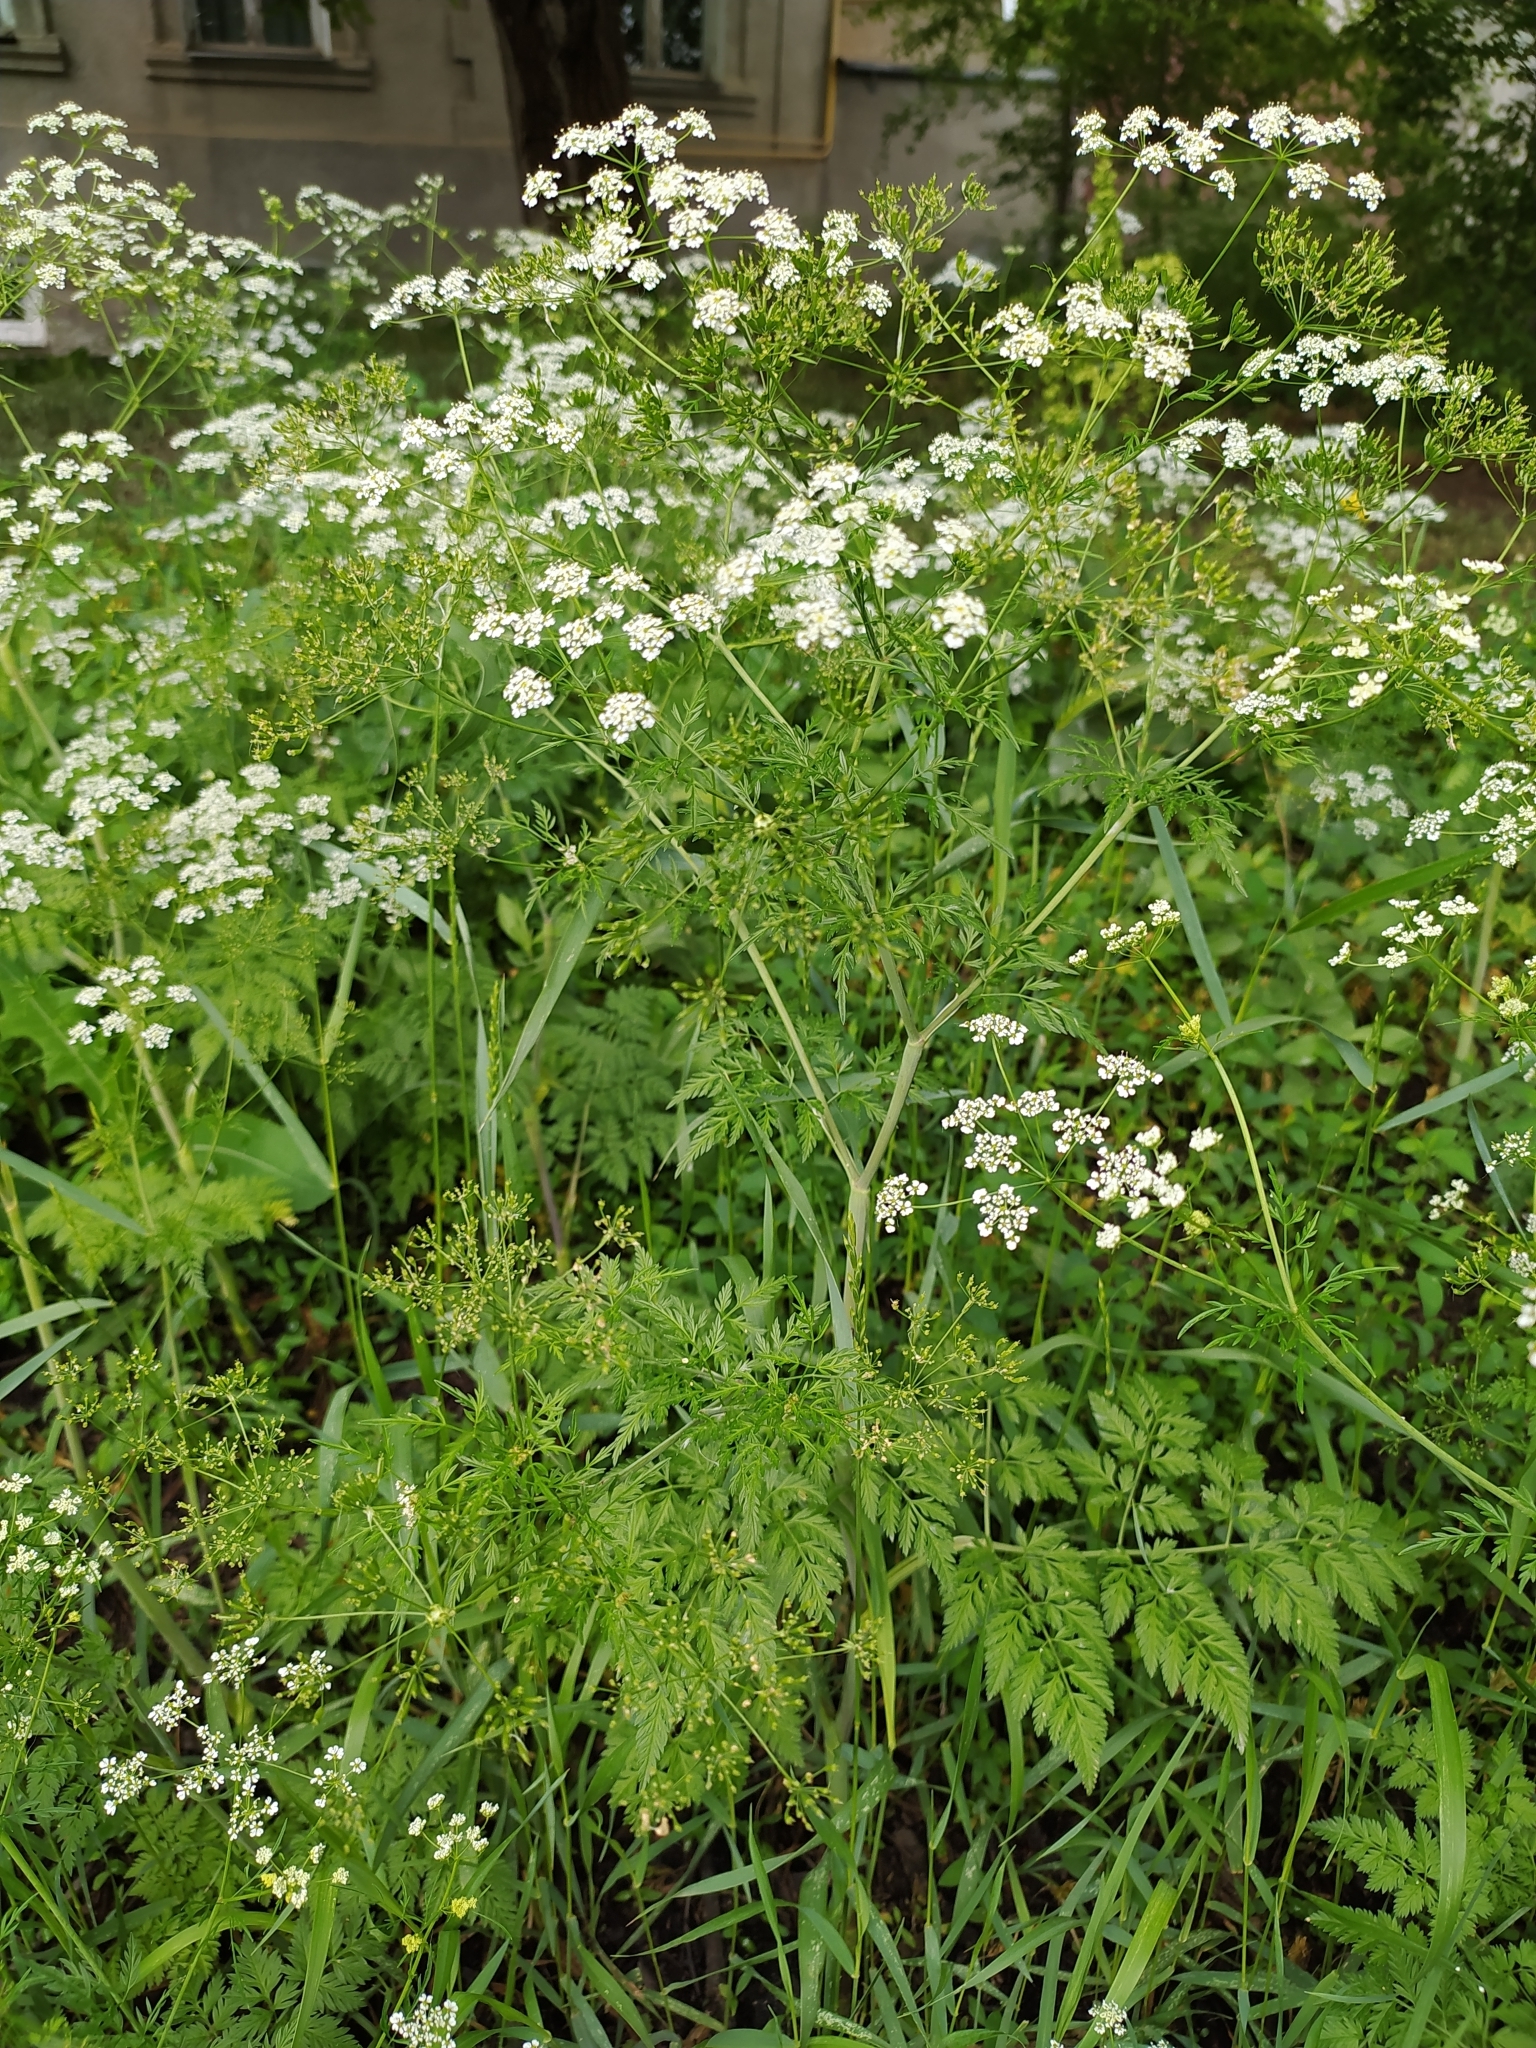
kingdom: Plantae
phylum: Tracheophyta
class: Magnoliopsida
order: Apiales
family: Apiaceae
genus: Chaerophyllum
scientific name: Chaerophyllum bulbosum
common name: Bulbous chervil
